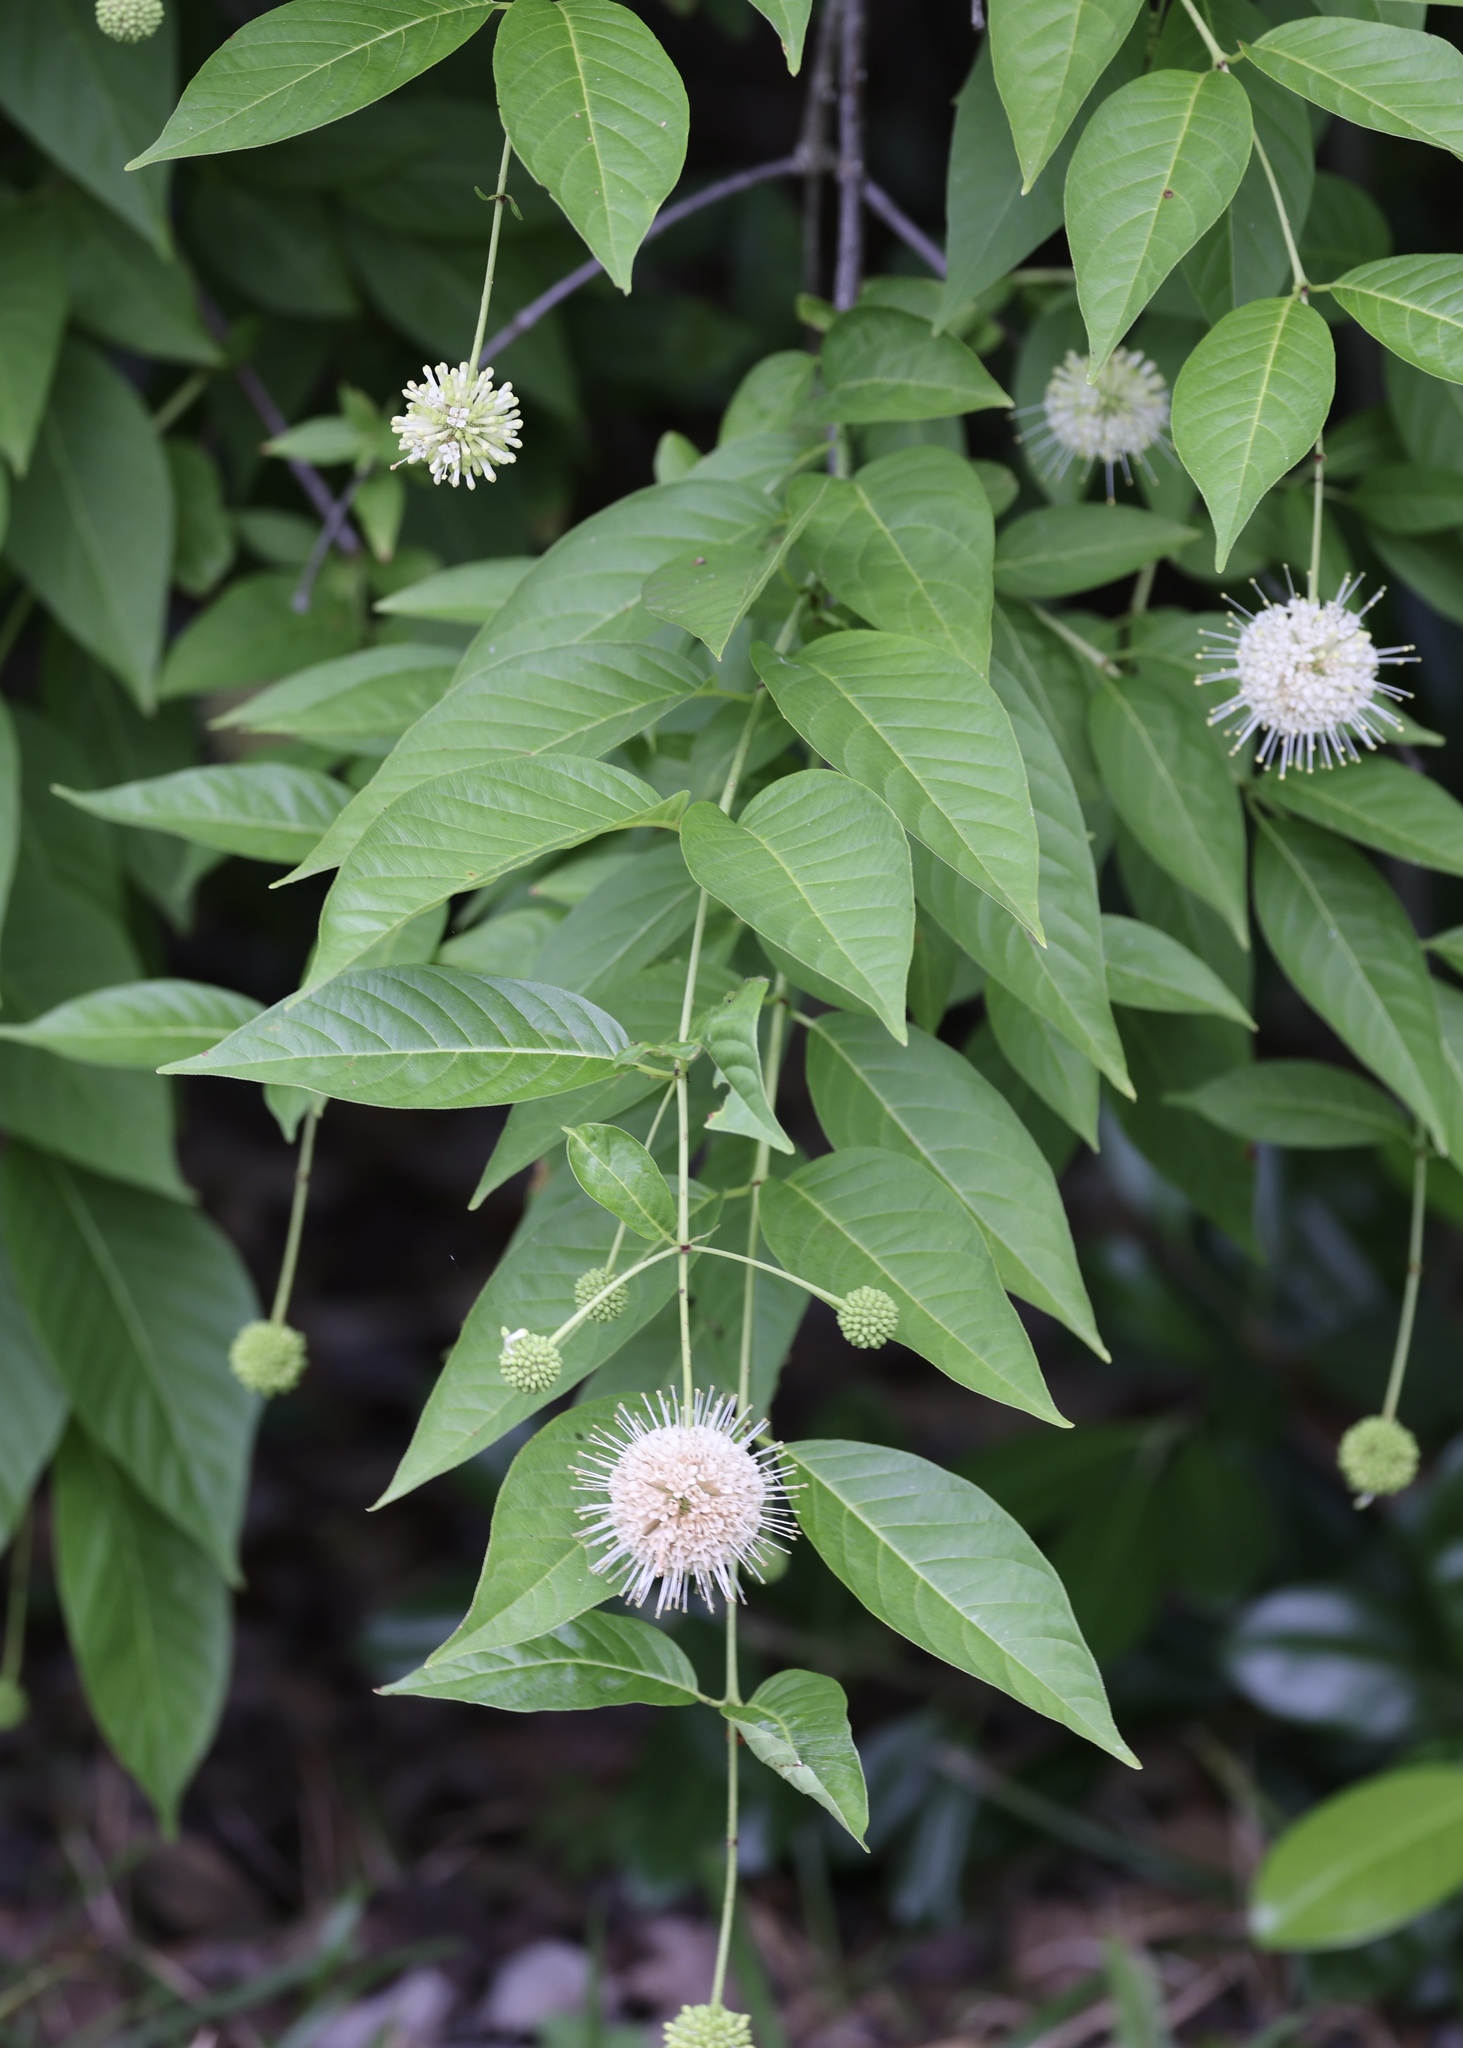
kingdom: Plantae
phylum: Tracheophyta
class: Magnoliopsida
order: Gentianales
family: Rubiaceae
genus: Cephalanthus
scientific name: Cephalanthus occidentalis
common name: Button-willow
